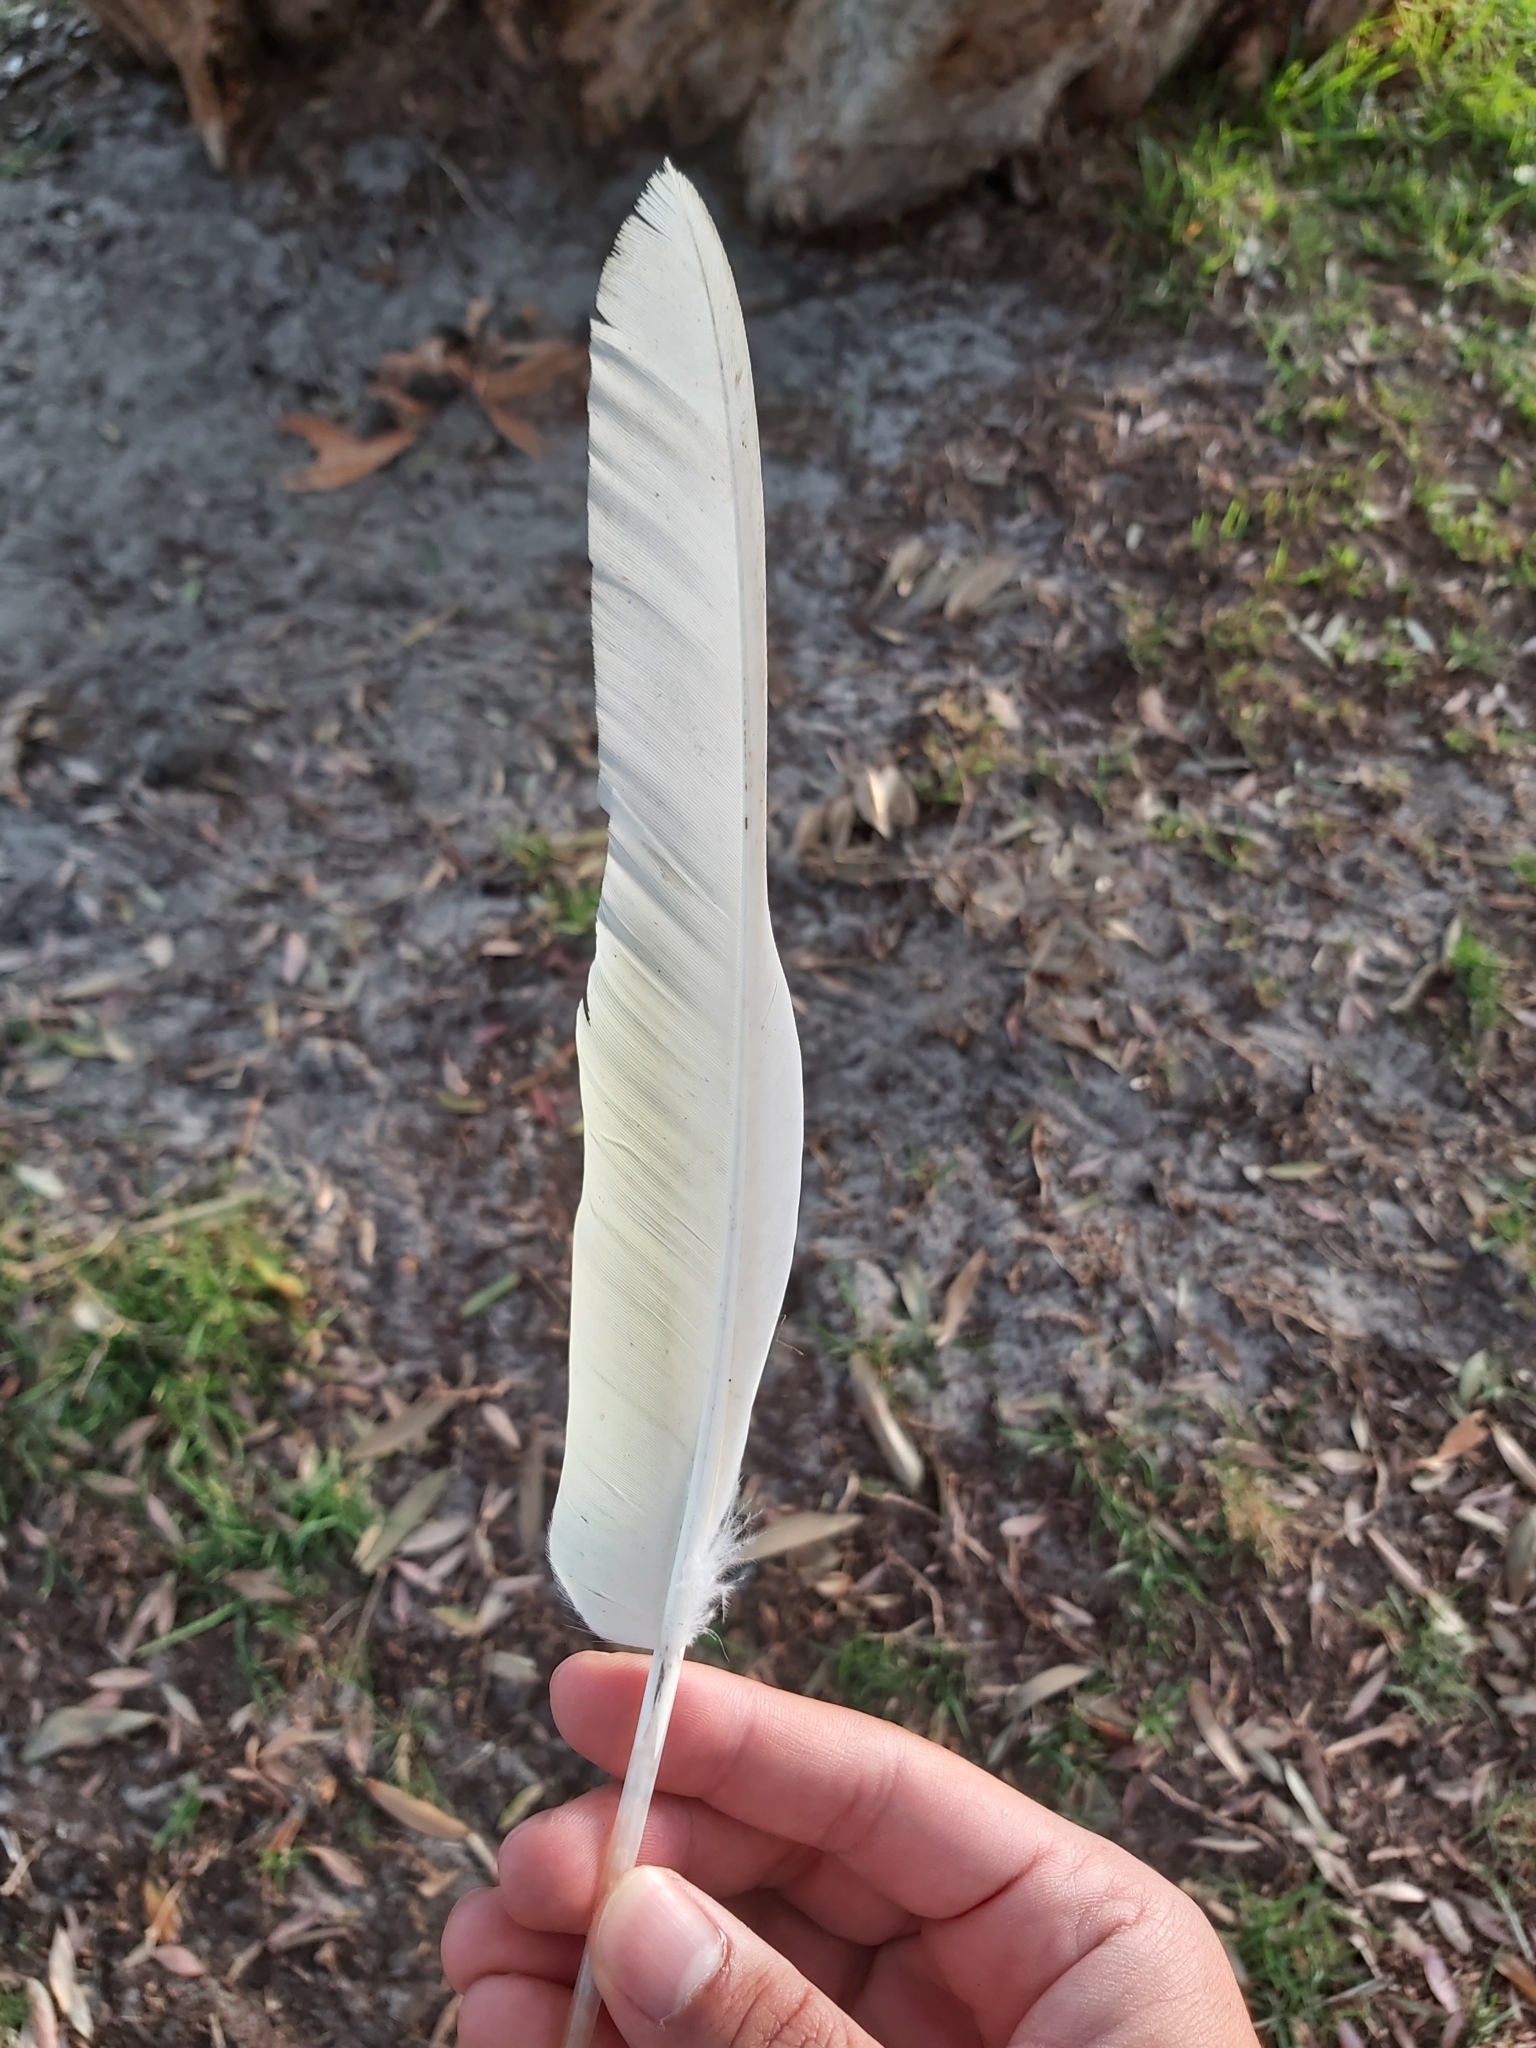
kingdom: Animalia
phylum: Chordata
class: Aves
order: Psittaciformes
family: Psittacidae
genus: Cacatua
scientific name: Cacatua galerita
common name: Sulphur-crested cockatoo
